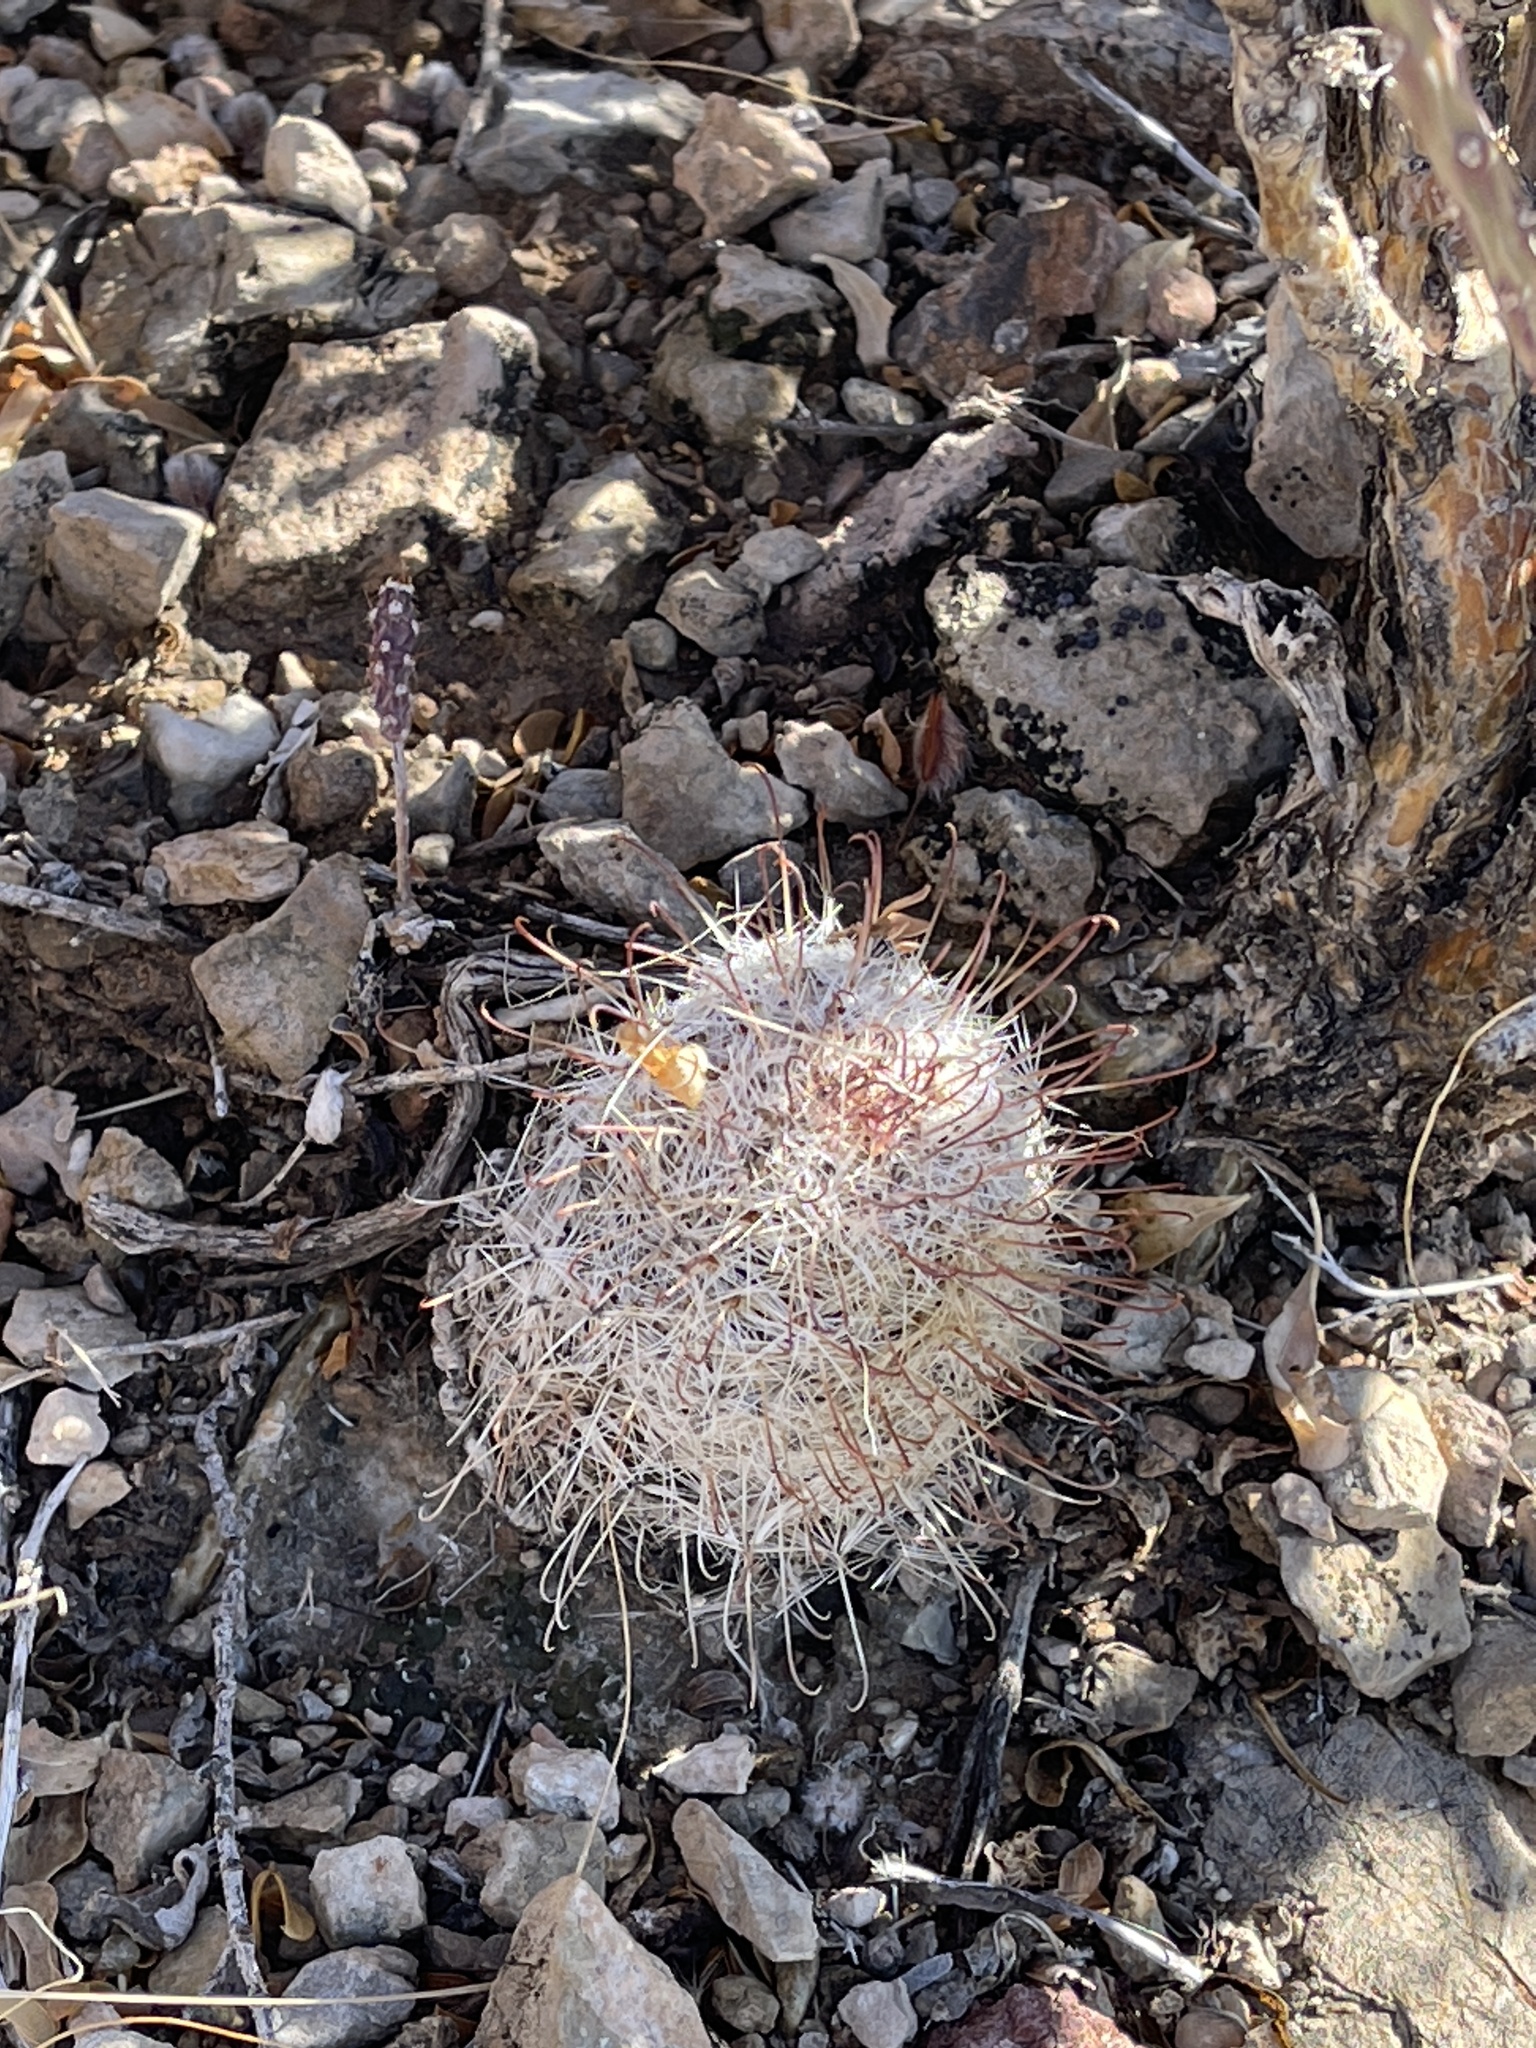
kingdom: Plantae
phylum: Tracheophyta
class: Magnoliopsida
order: Caryophyllales
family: Cactaceae
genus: Cochemiea
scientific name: Cochemiea grahamii
